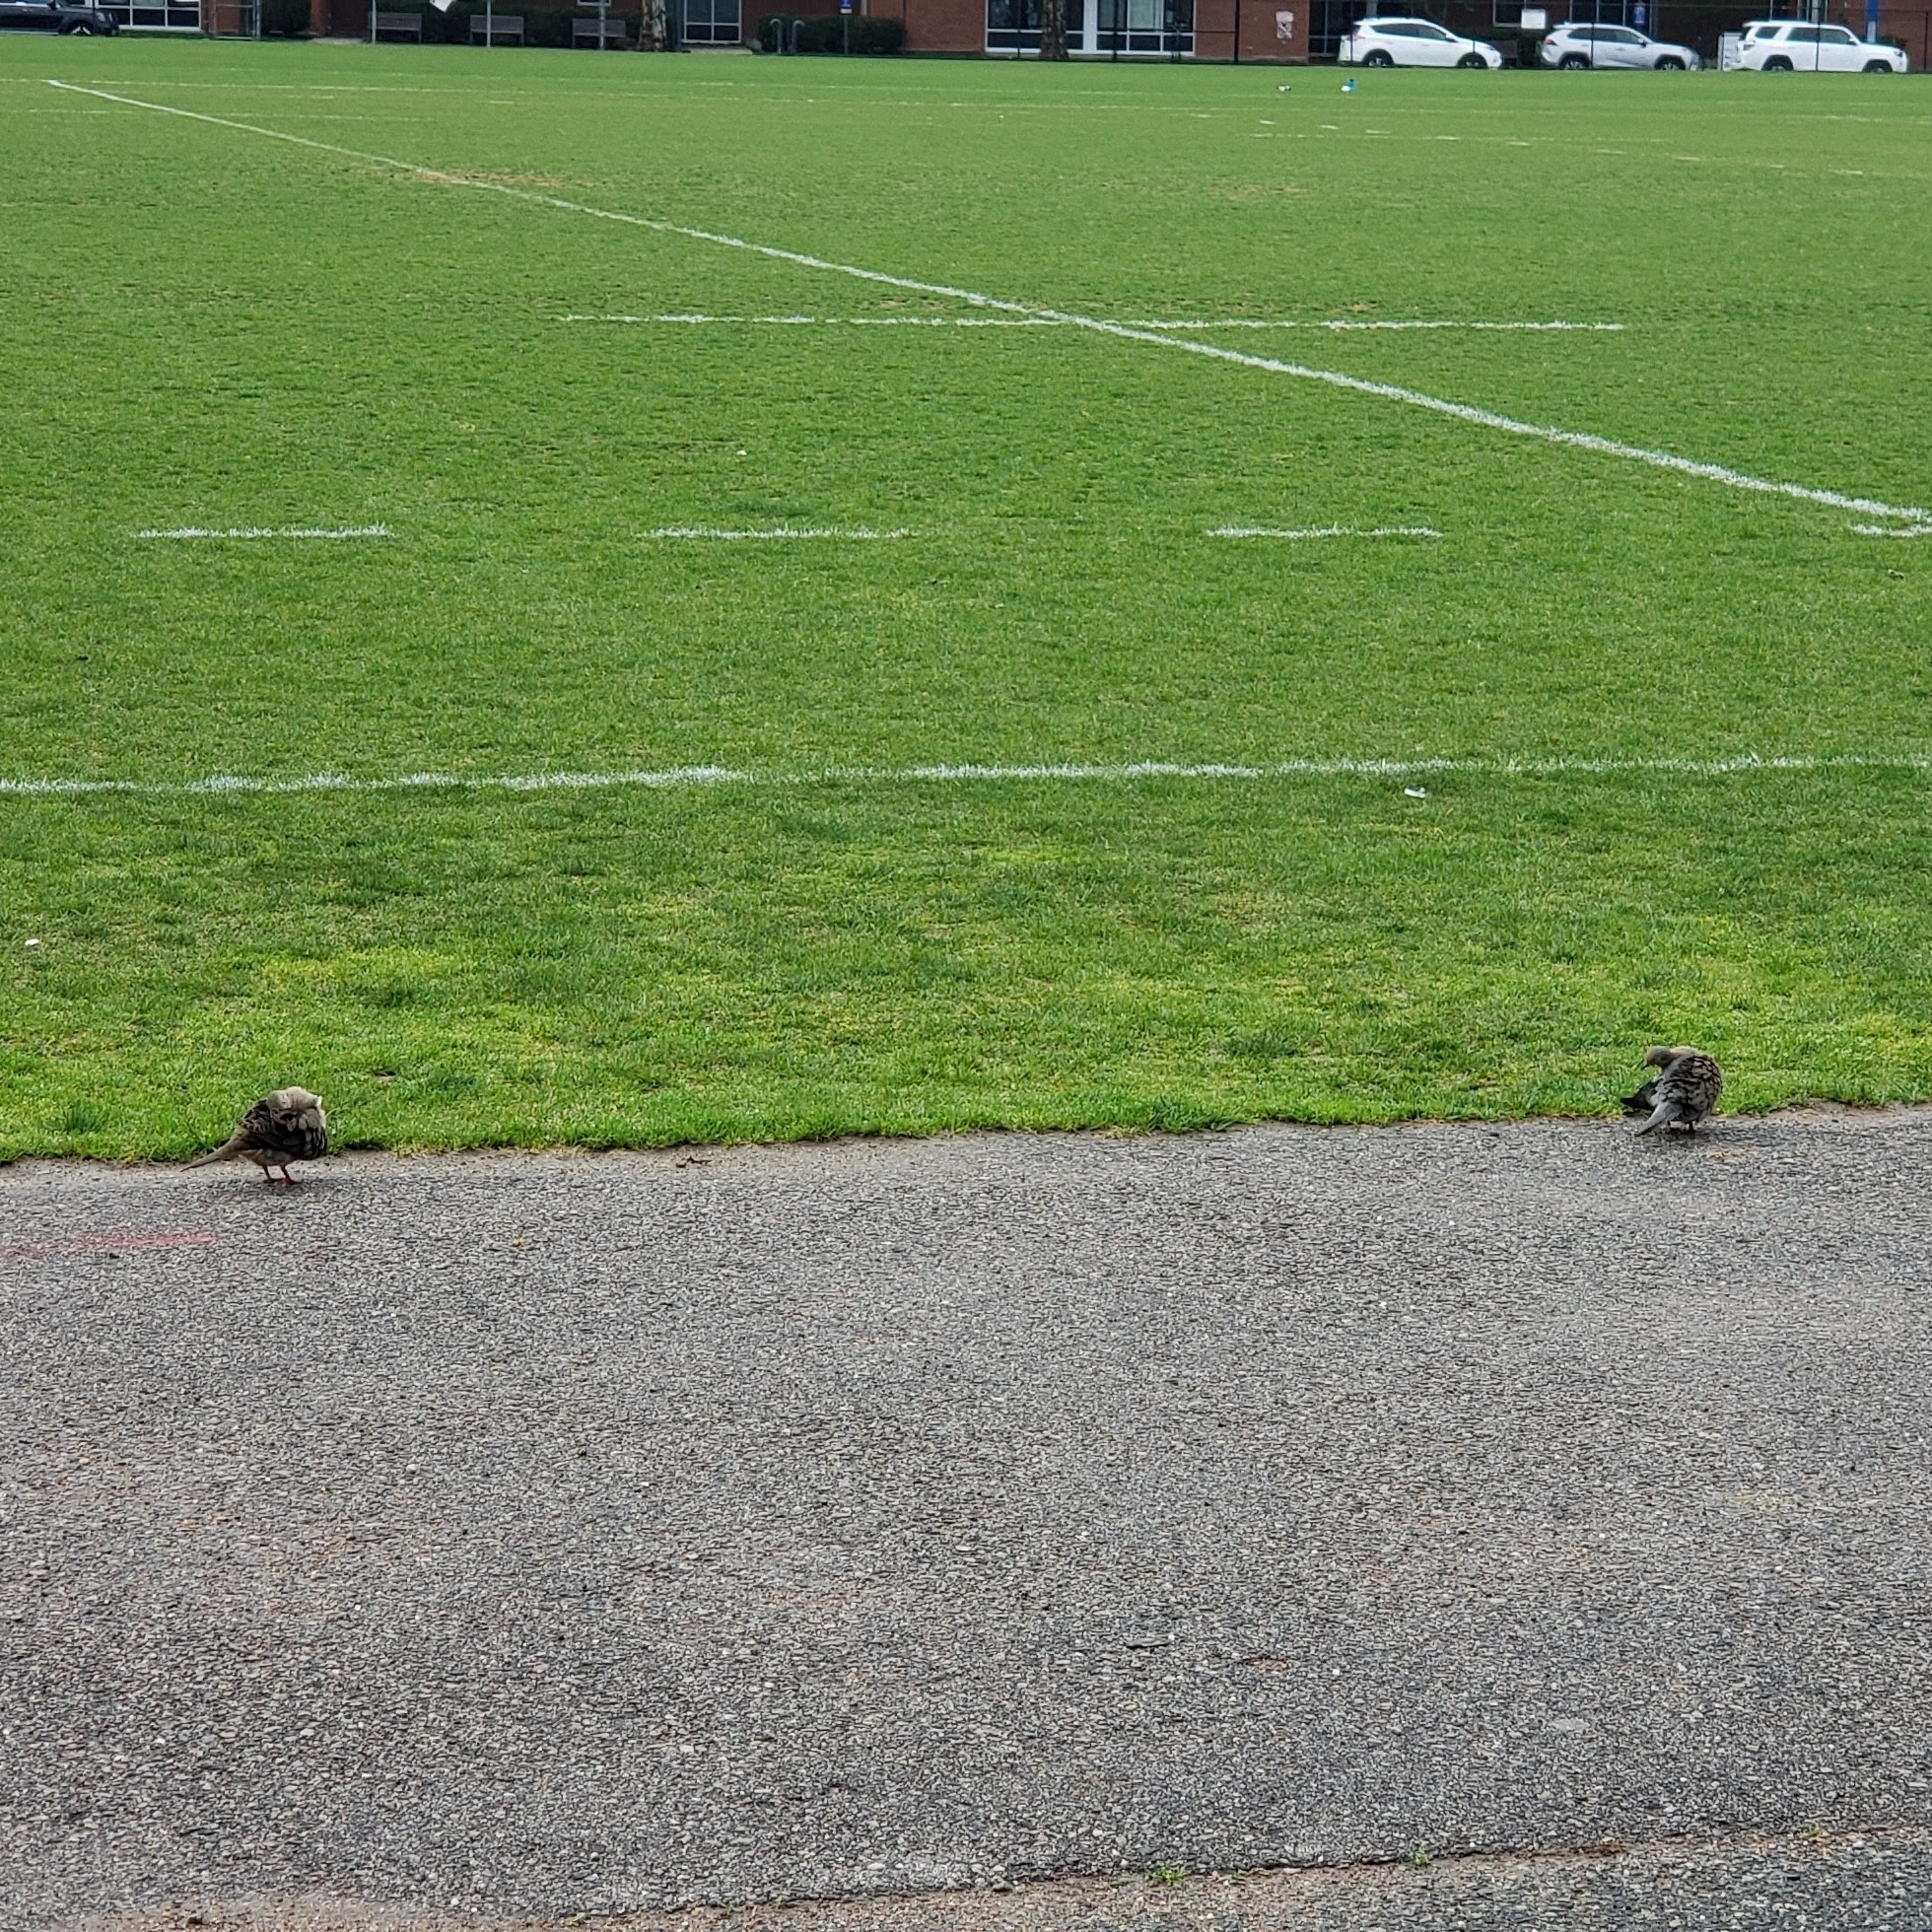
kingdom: Animalia
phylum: Chordata
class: Aves
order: Columbiformes
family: Columbidae
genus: Zenaida
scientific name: Zenaida macroura
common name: Mourning dove
